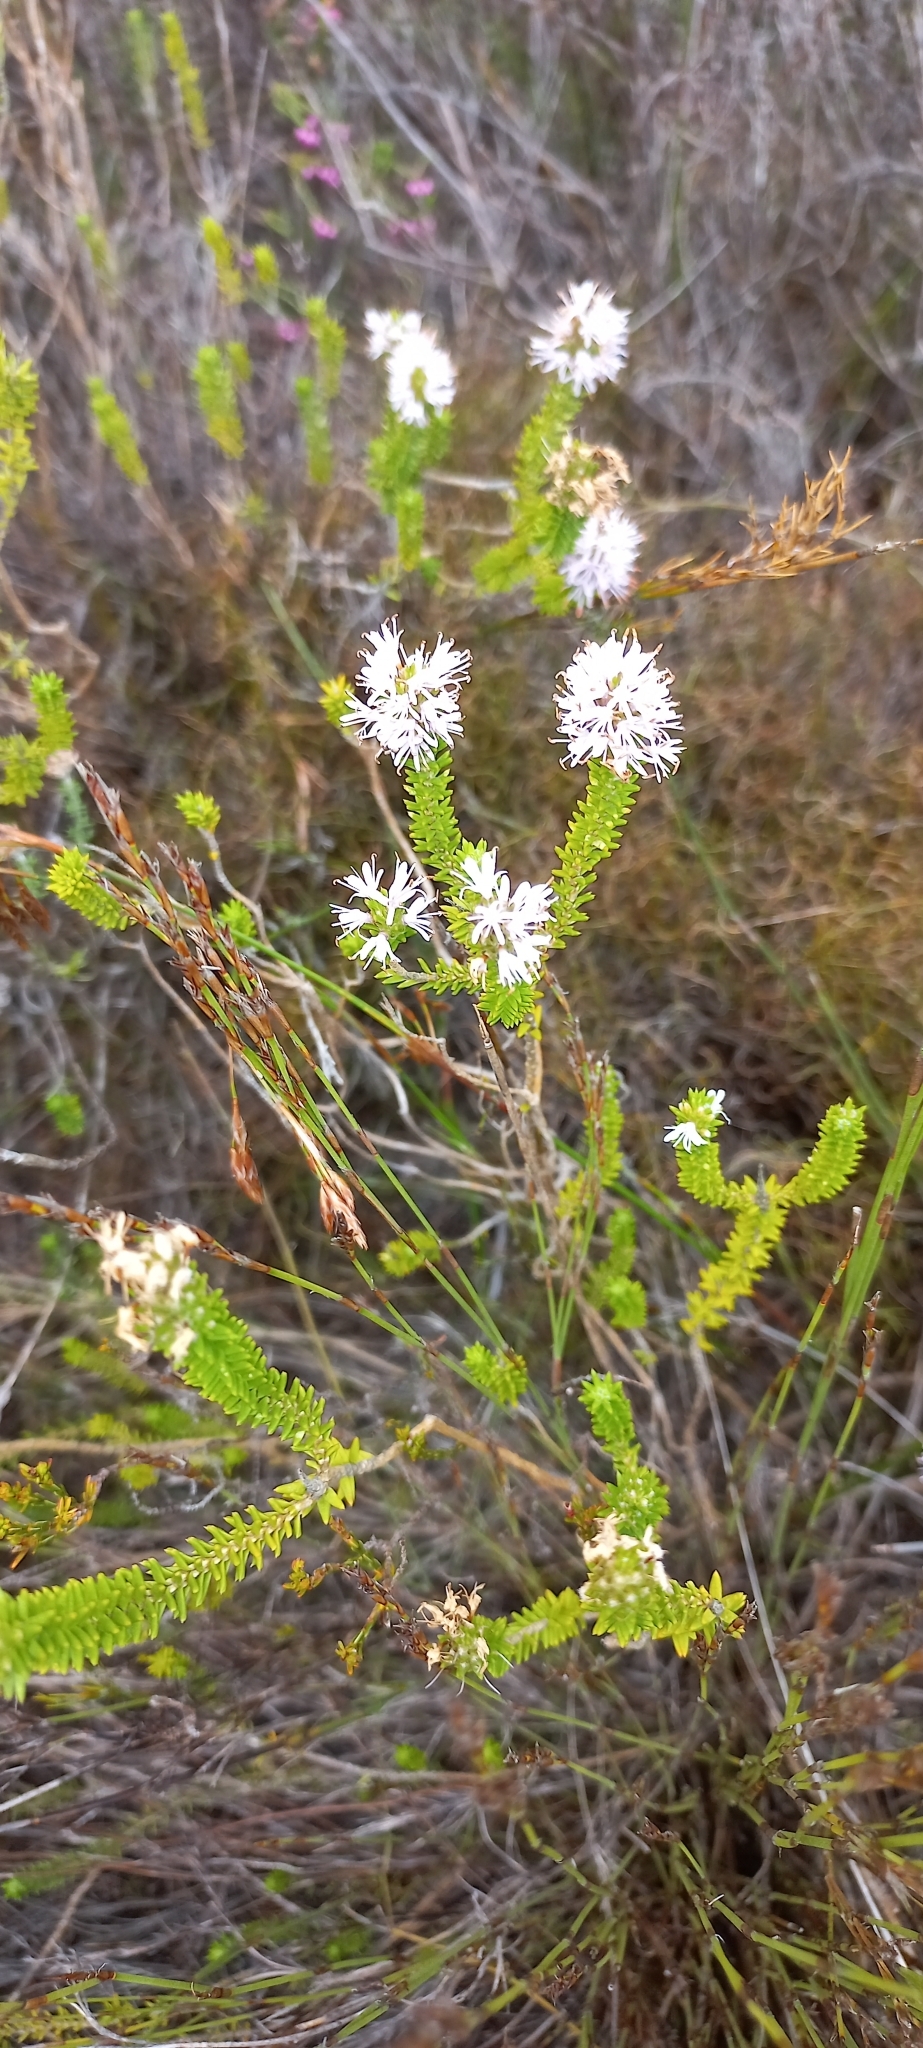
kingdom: Plantae
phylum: Tracheophyta
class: Magnoliopsida
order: Lamiales
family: Stilbaceae
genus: Stilbe
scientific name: Stilbe ericoides
